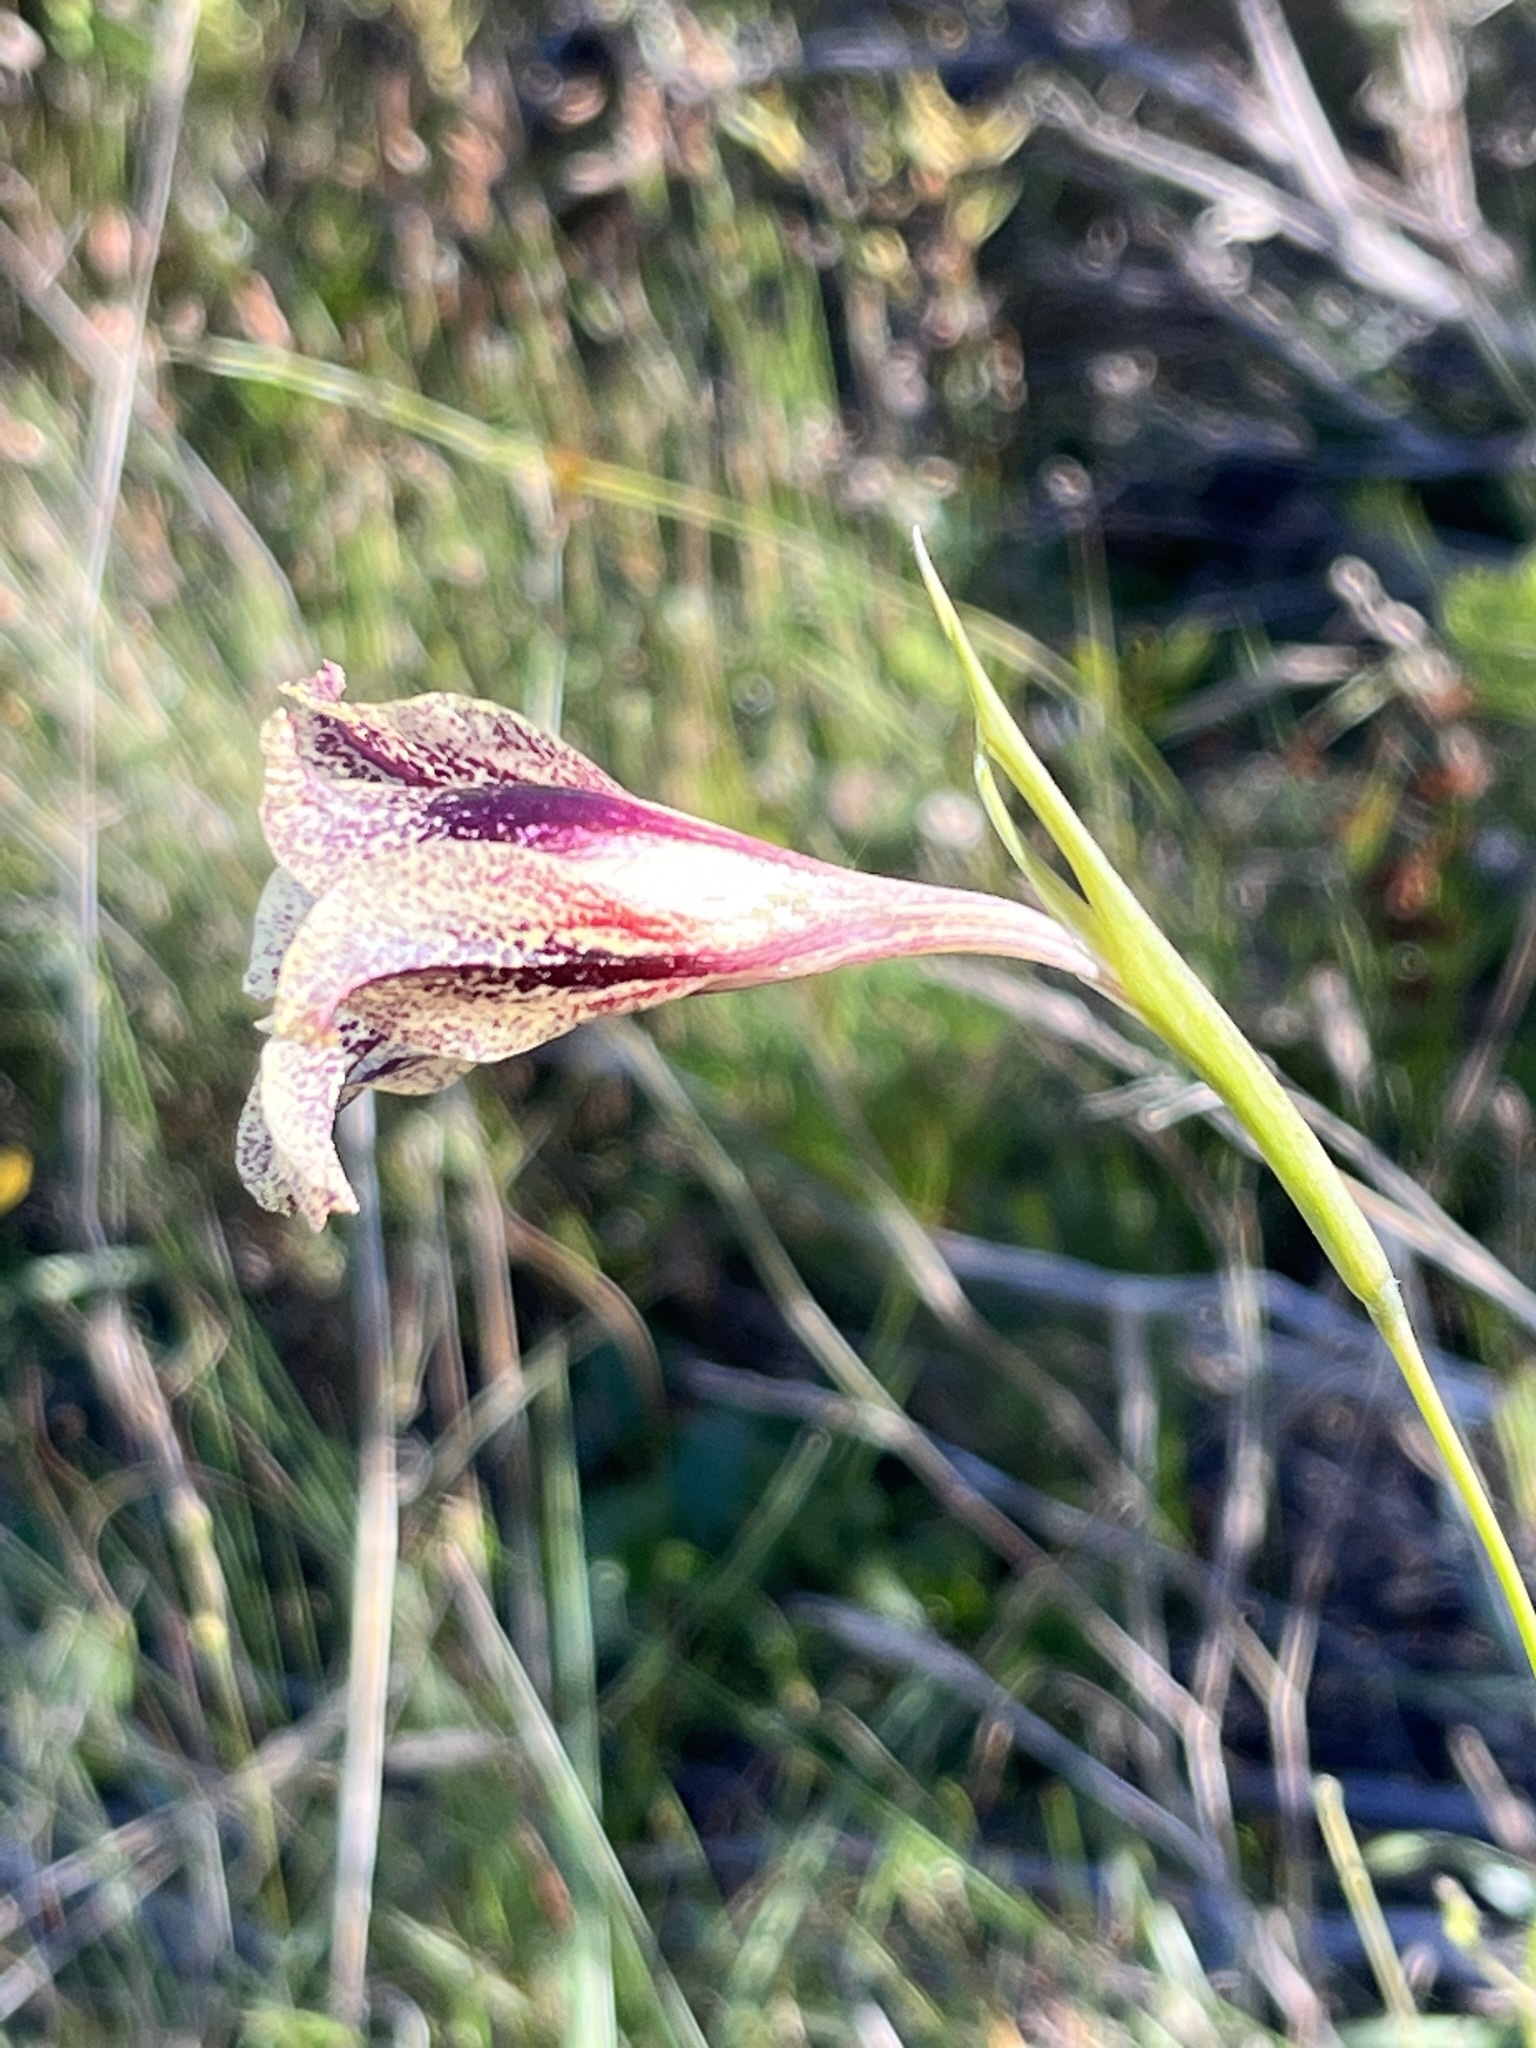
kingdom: Plantae
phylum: Tracheophyta
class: Liliopsida
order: Asparagales
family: Iridaceae
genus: Gladiolus
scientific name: Gladiolus maculatus
